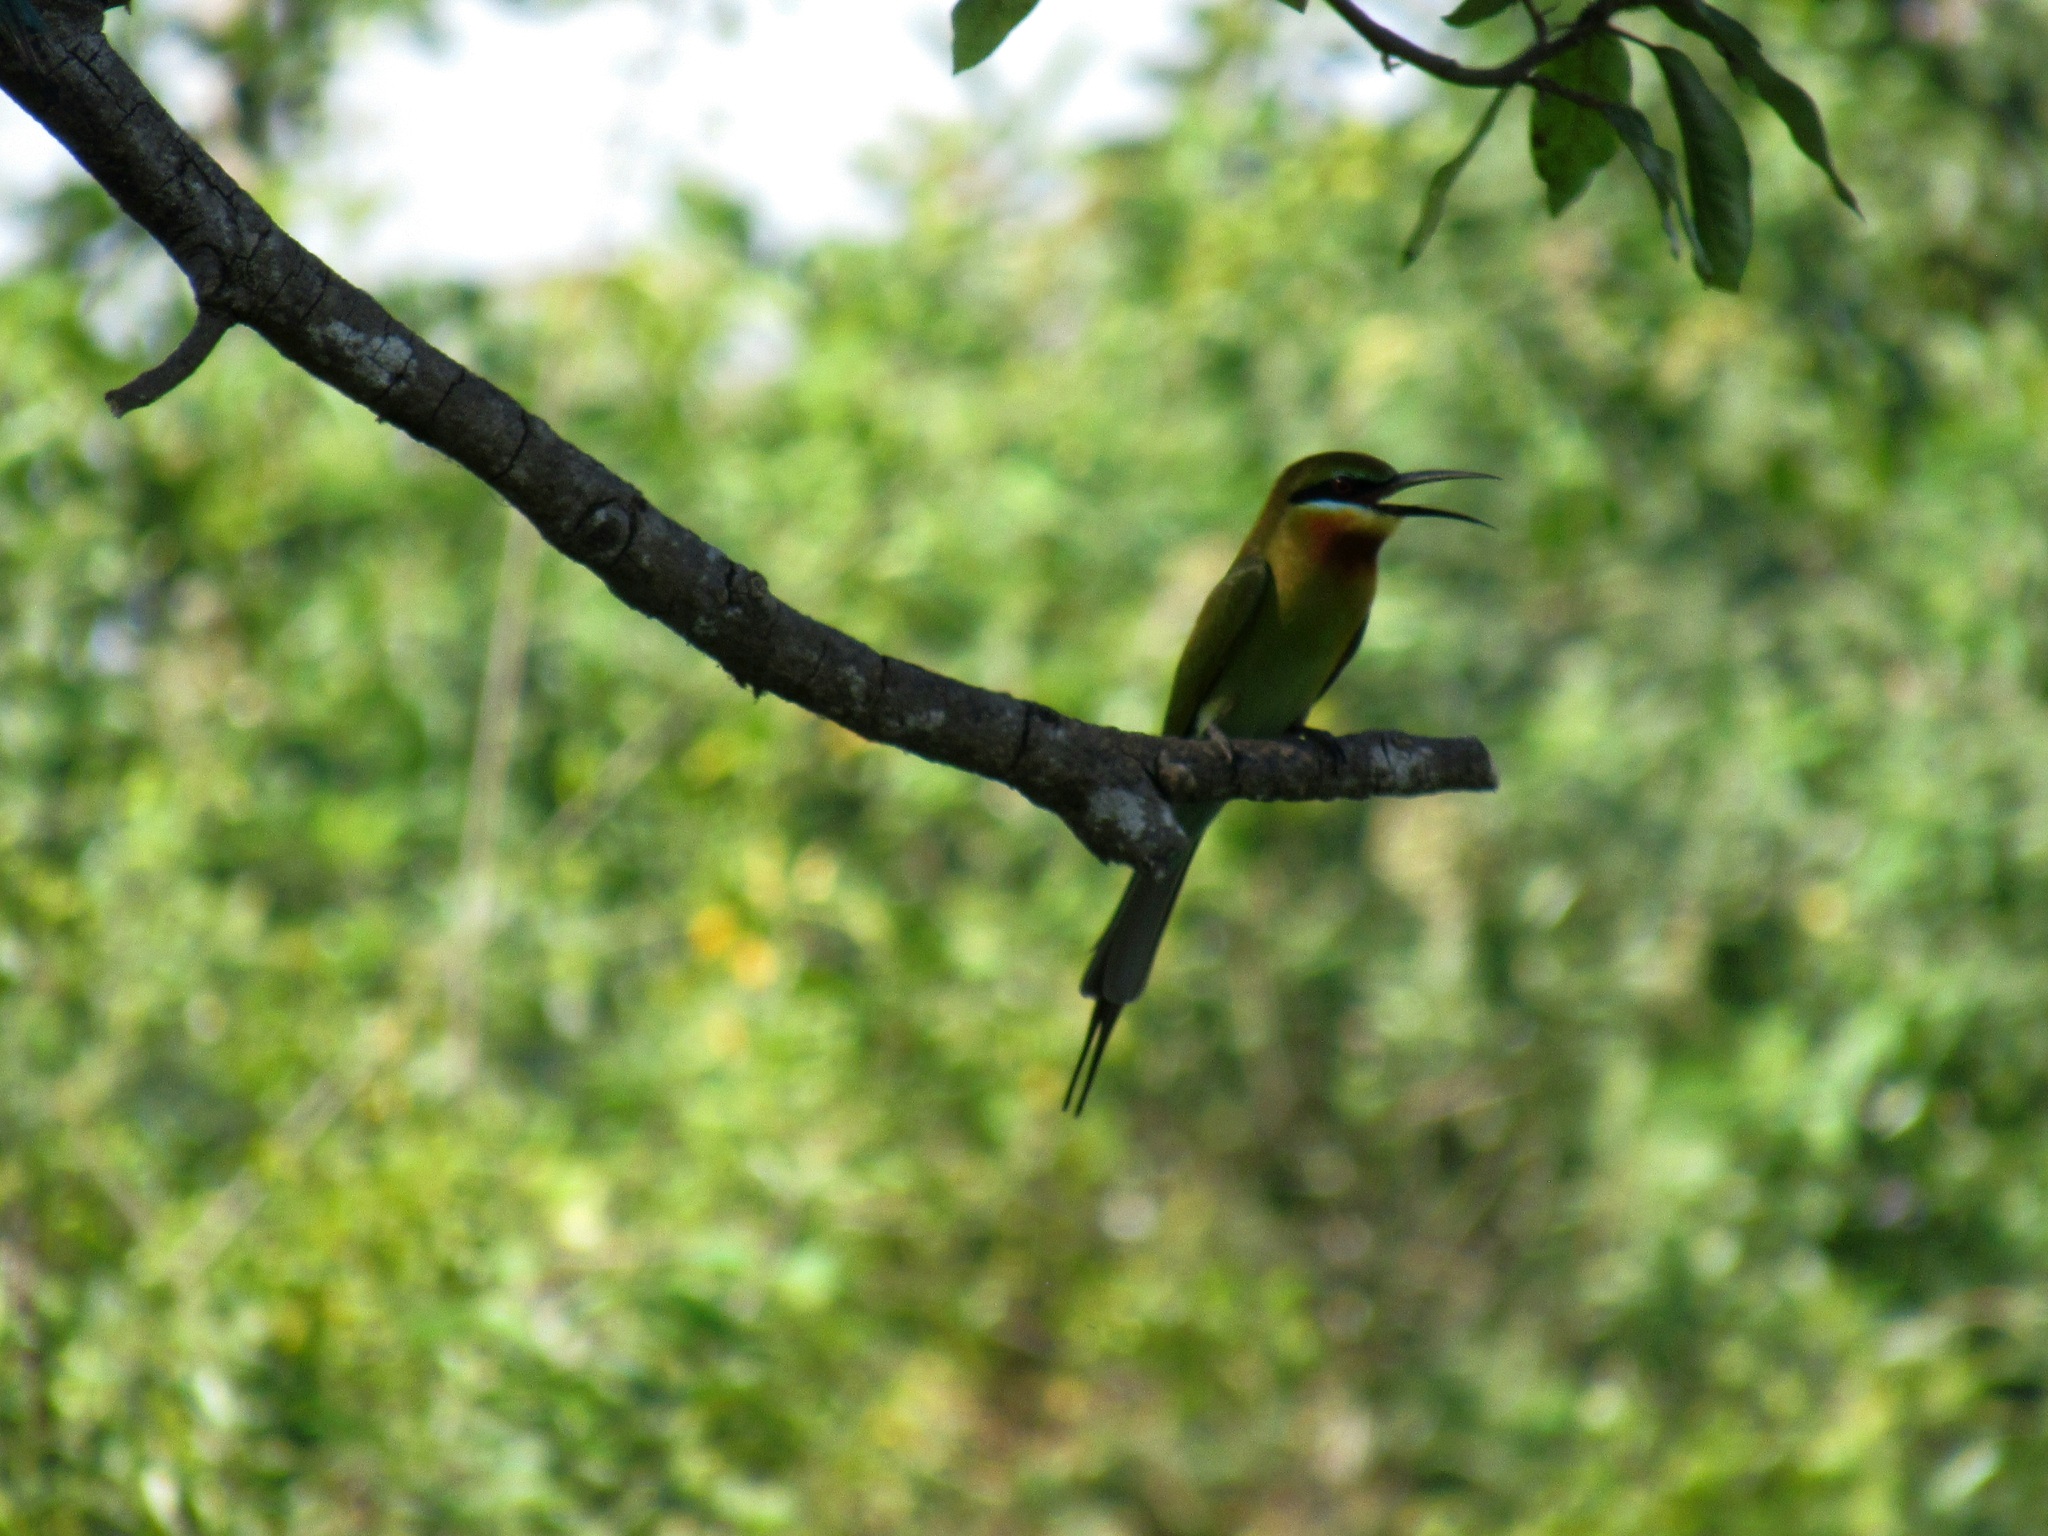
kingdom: Animalia
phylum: Chordata
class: Aves
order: Coraciiformes
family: Meropidae
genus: Merops
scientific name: Merops philippinus
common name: Blue-tailed bee-eater
